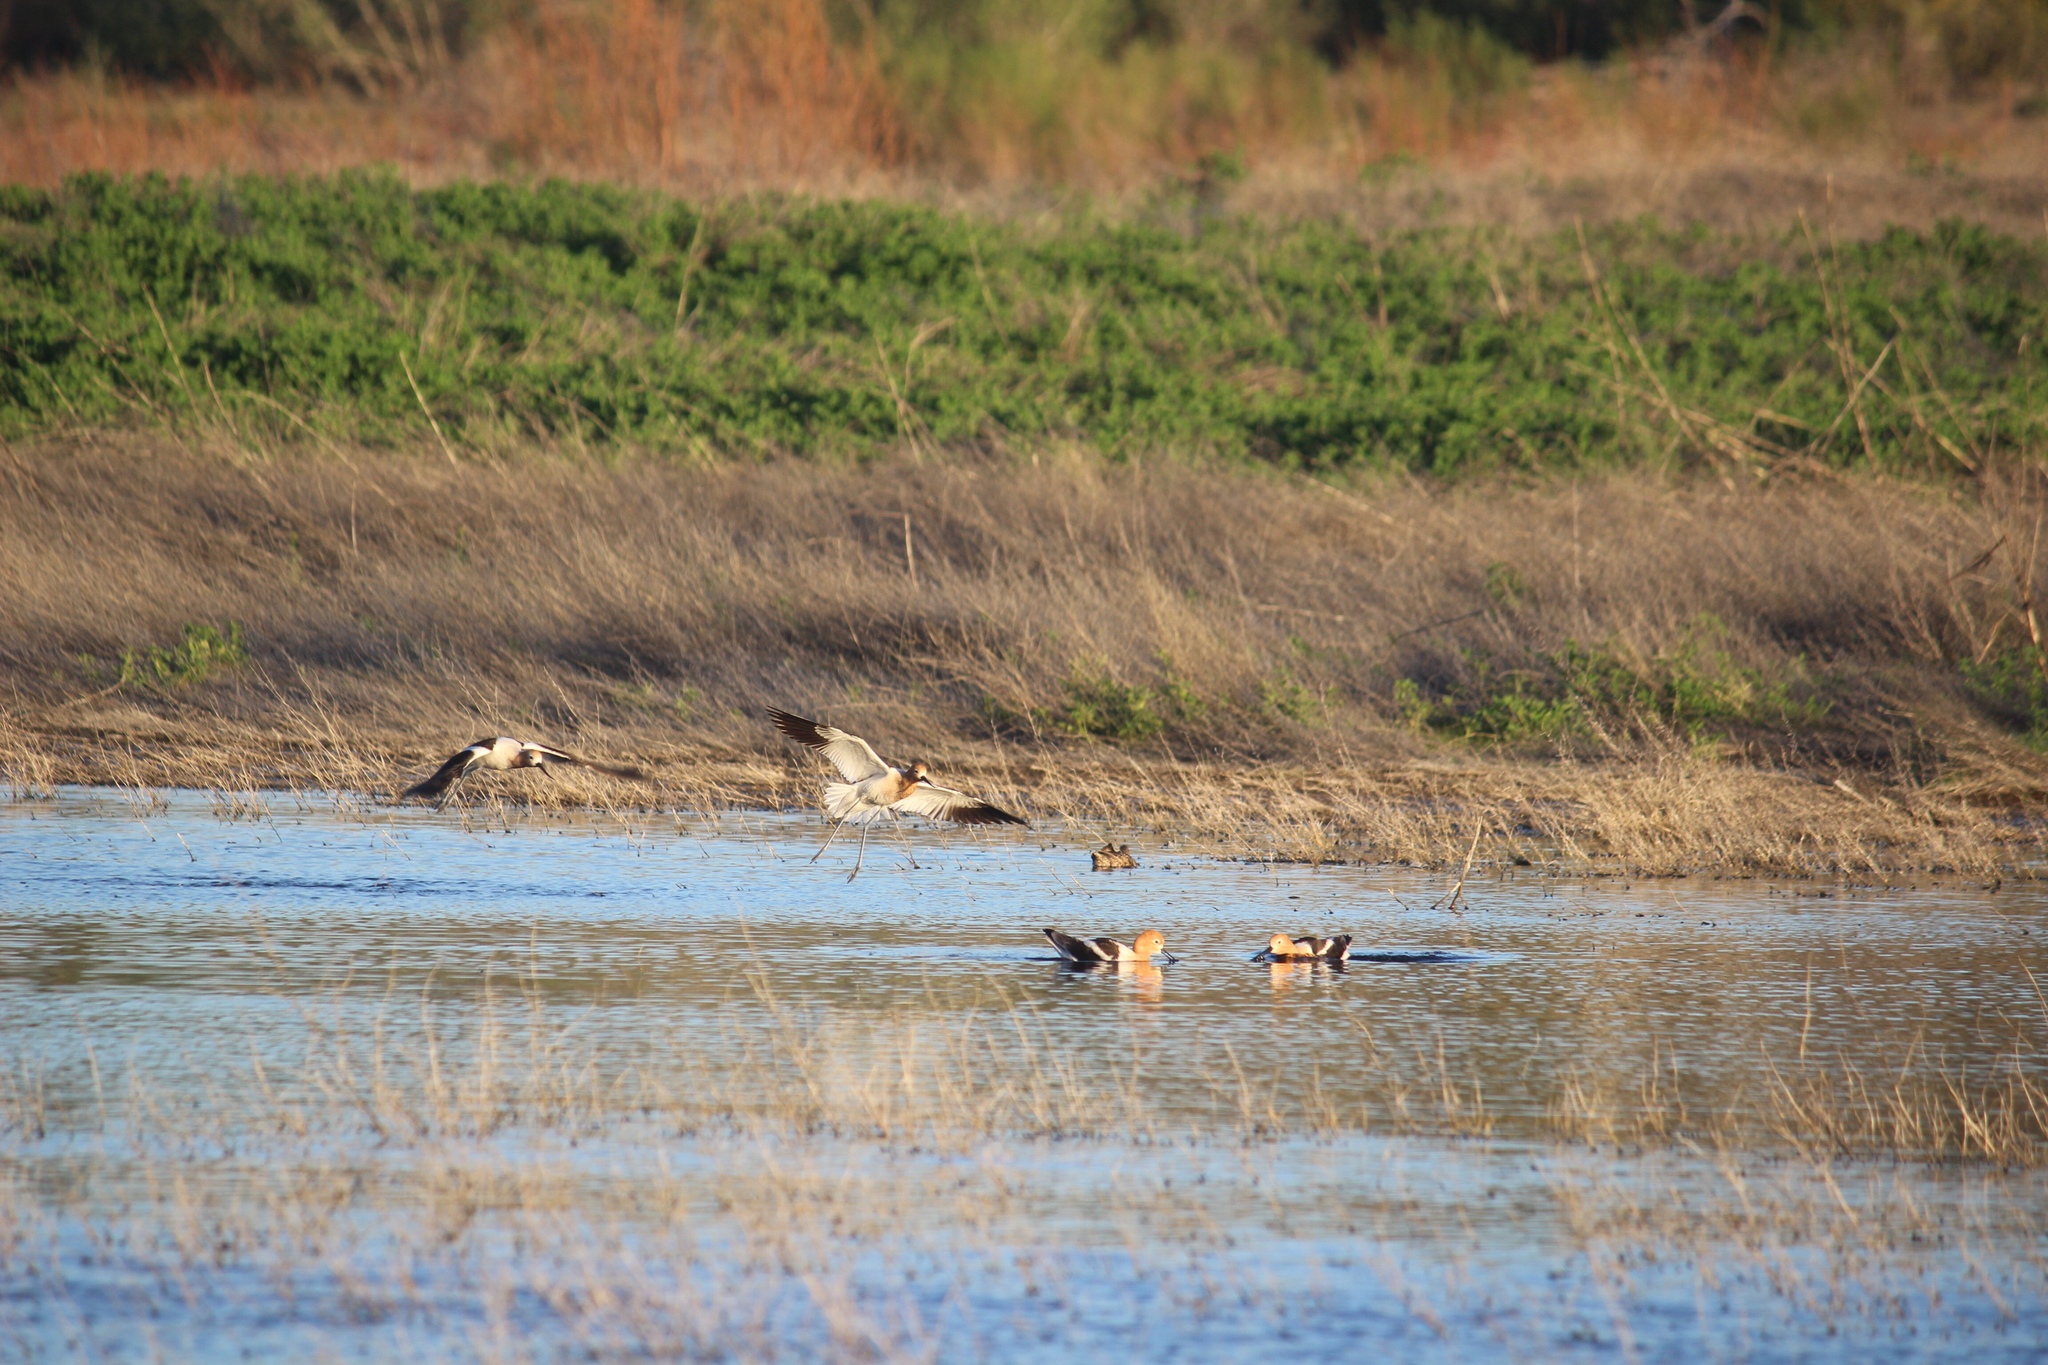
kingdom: Animalia
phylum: Chordata
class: Aves
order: Charadriiformes
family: Recurvirostridae
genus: Recurvirostra
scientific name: Recurvirostra americana
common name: American avocet
